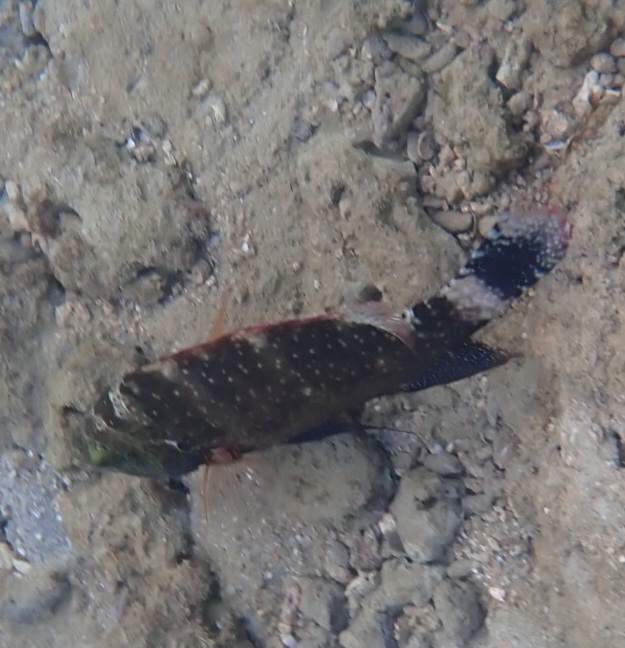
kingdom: Animalia
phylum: Chordata
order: Perciformes
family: Labridae
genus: Cheilinus
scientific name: Cheilinus chlorourus
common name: Floral wrasse
